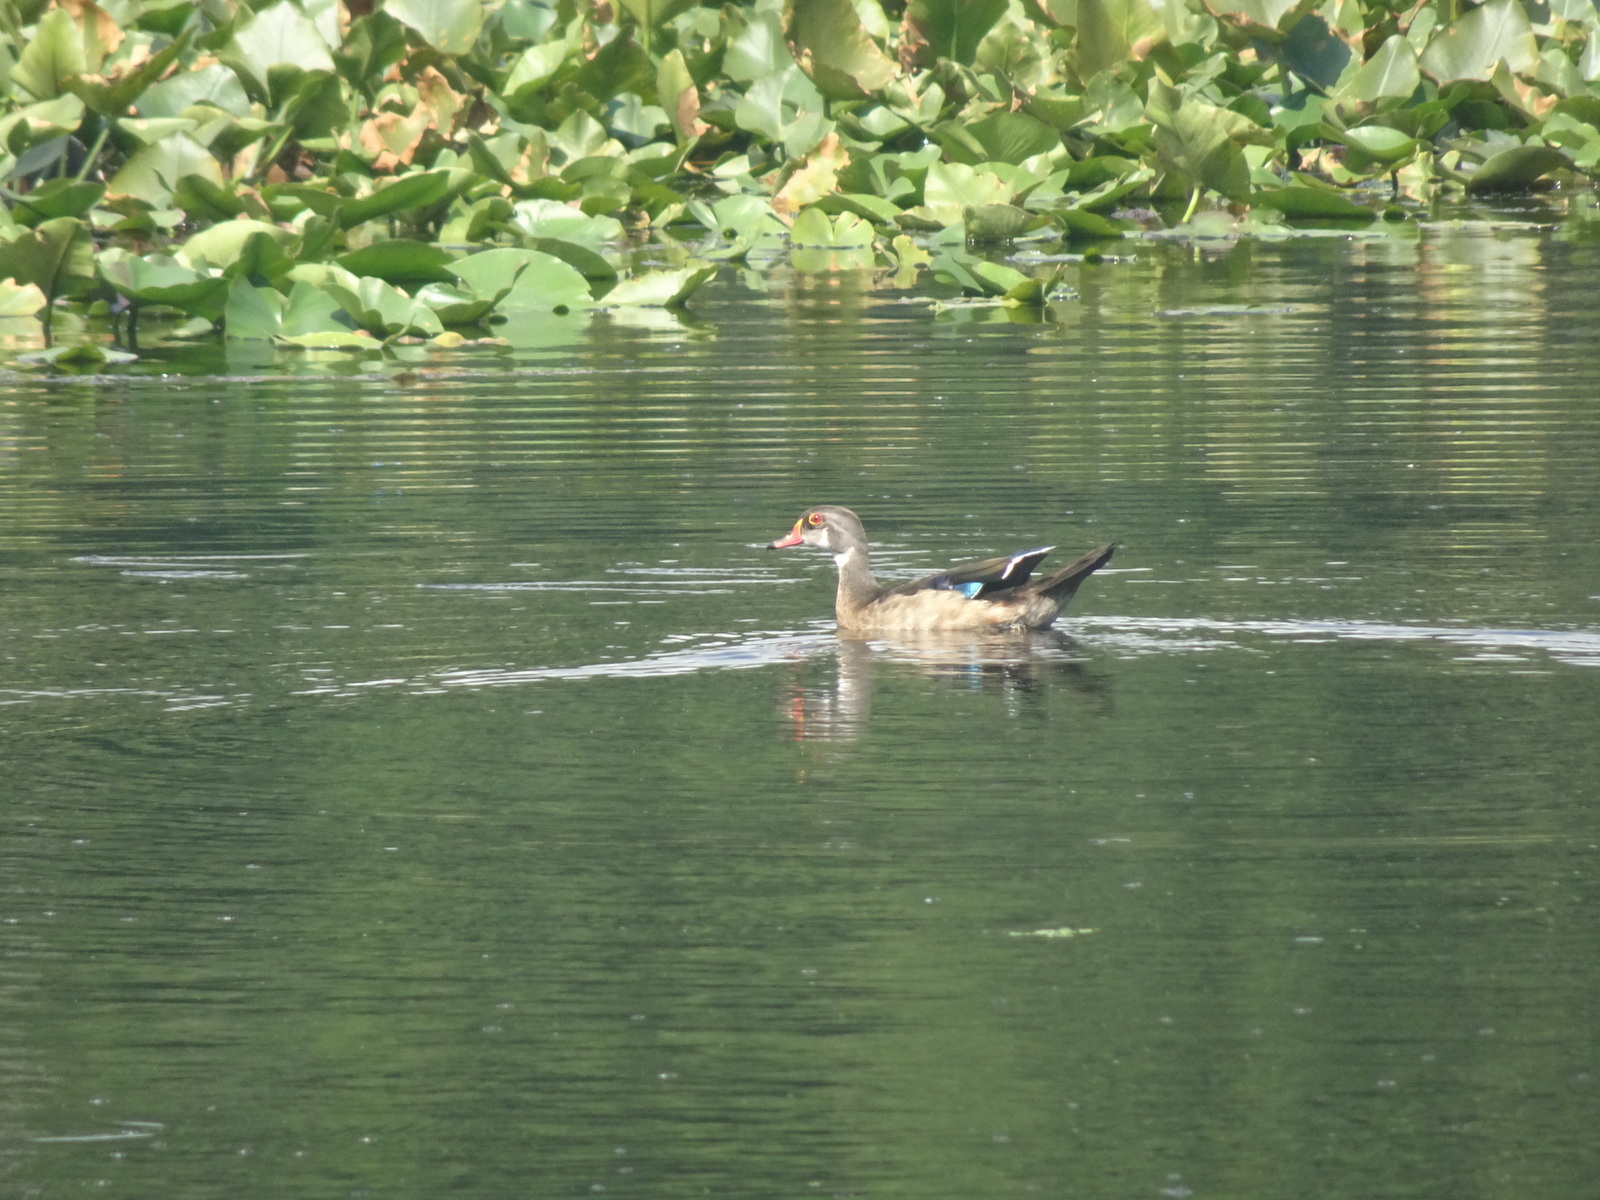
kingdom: Animalia
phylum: Chordata
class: Aves
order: Anseriformes
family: Anatidae
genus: Aix
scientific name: Aix sponsa
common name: Wood duck
